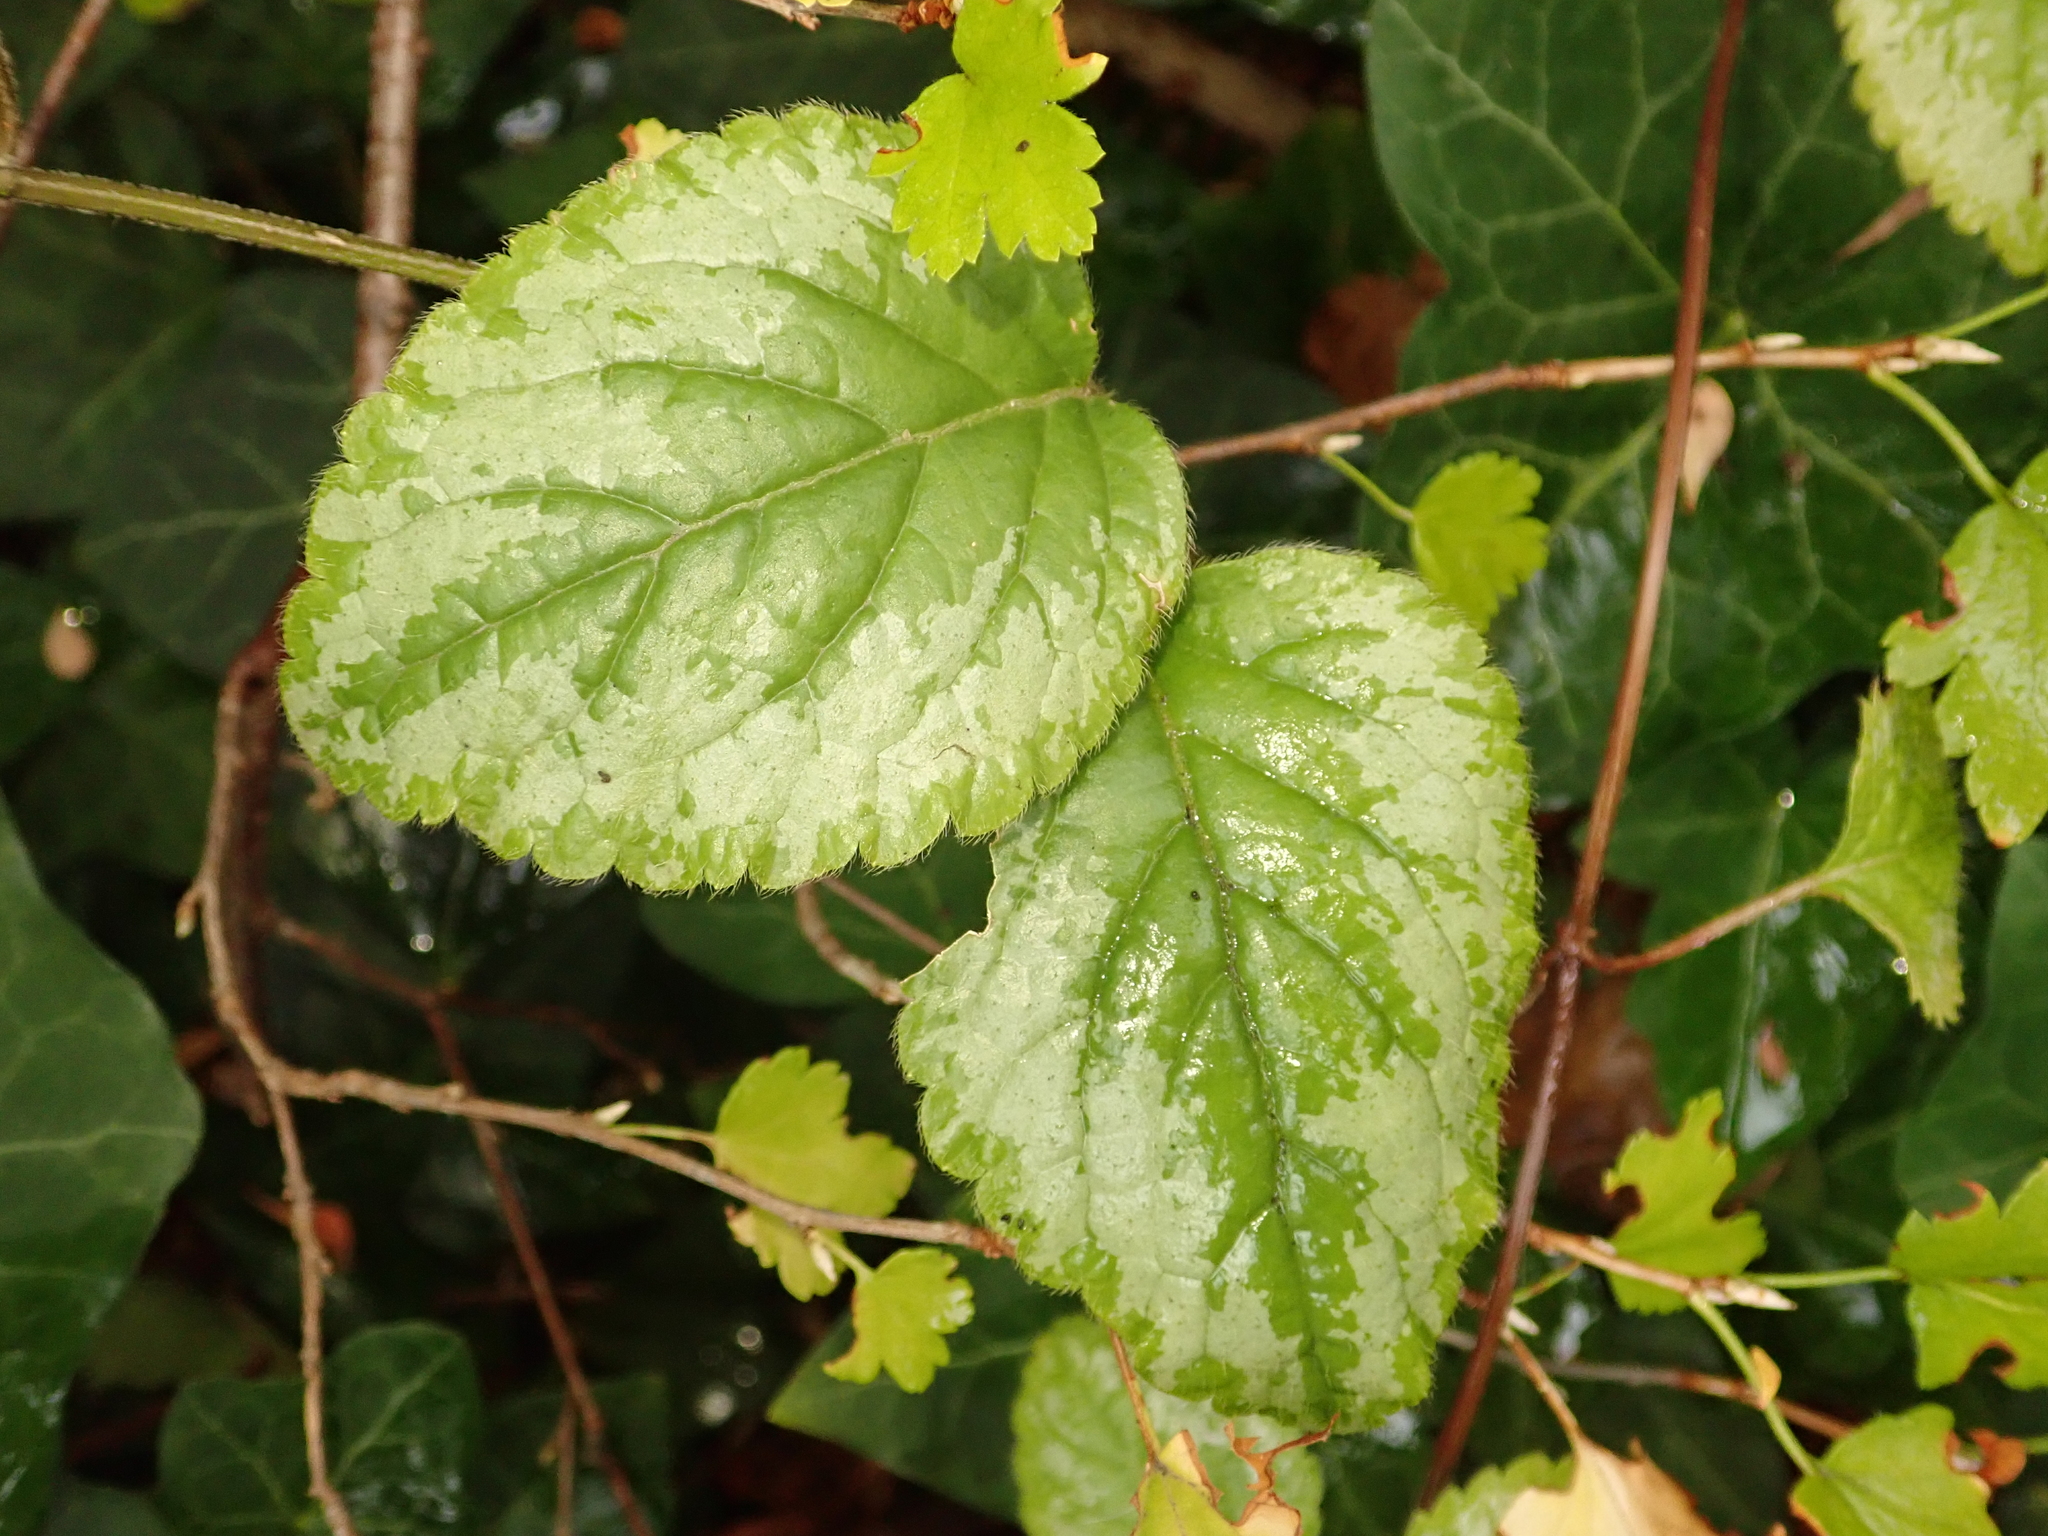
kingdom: Plantae
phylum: Tracheophyta
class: Magnoliopsida
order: Lamiales
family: Lamiaceae
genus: Lamium
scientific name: Lamium galeobdolon
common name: Yellow archangel
